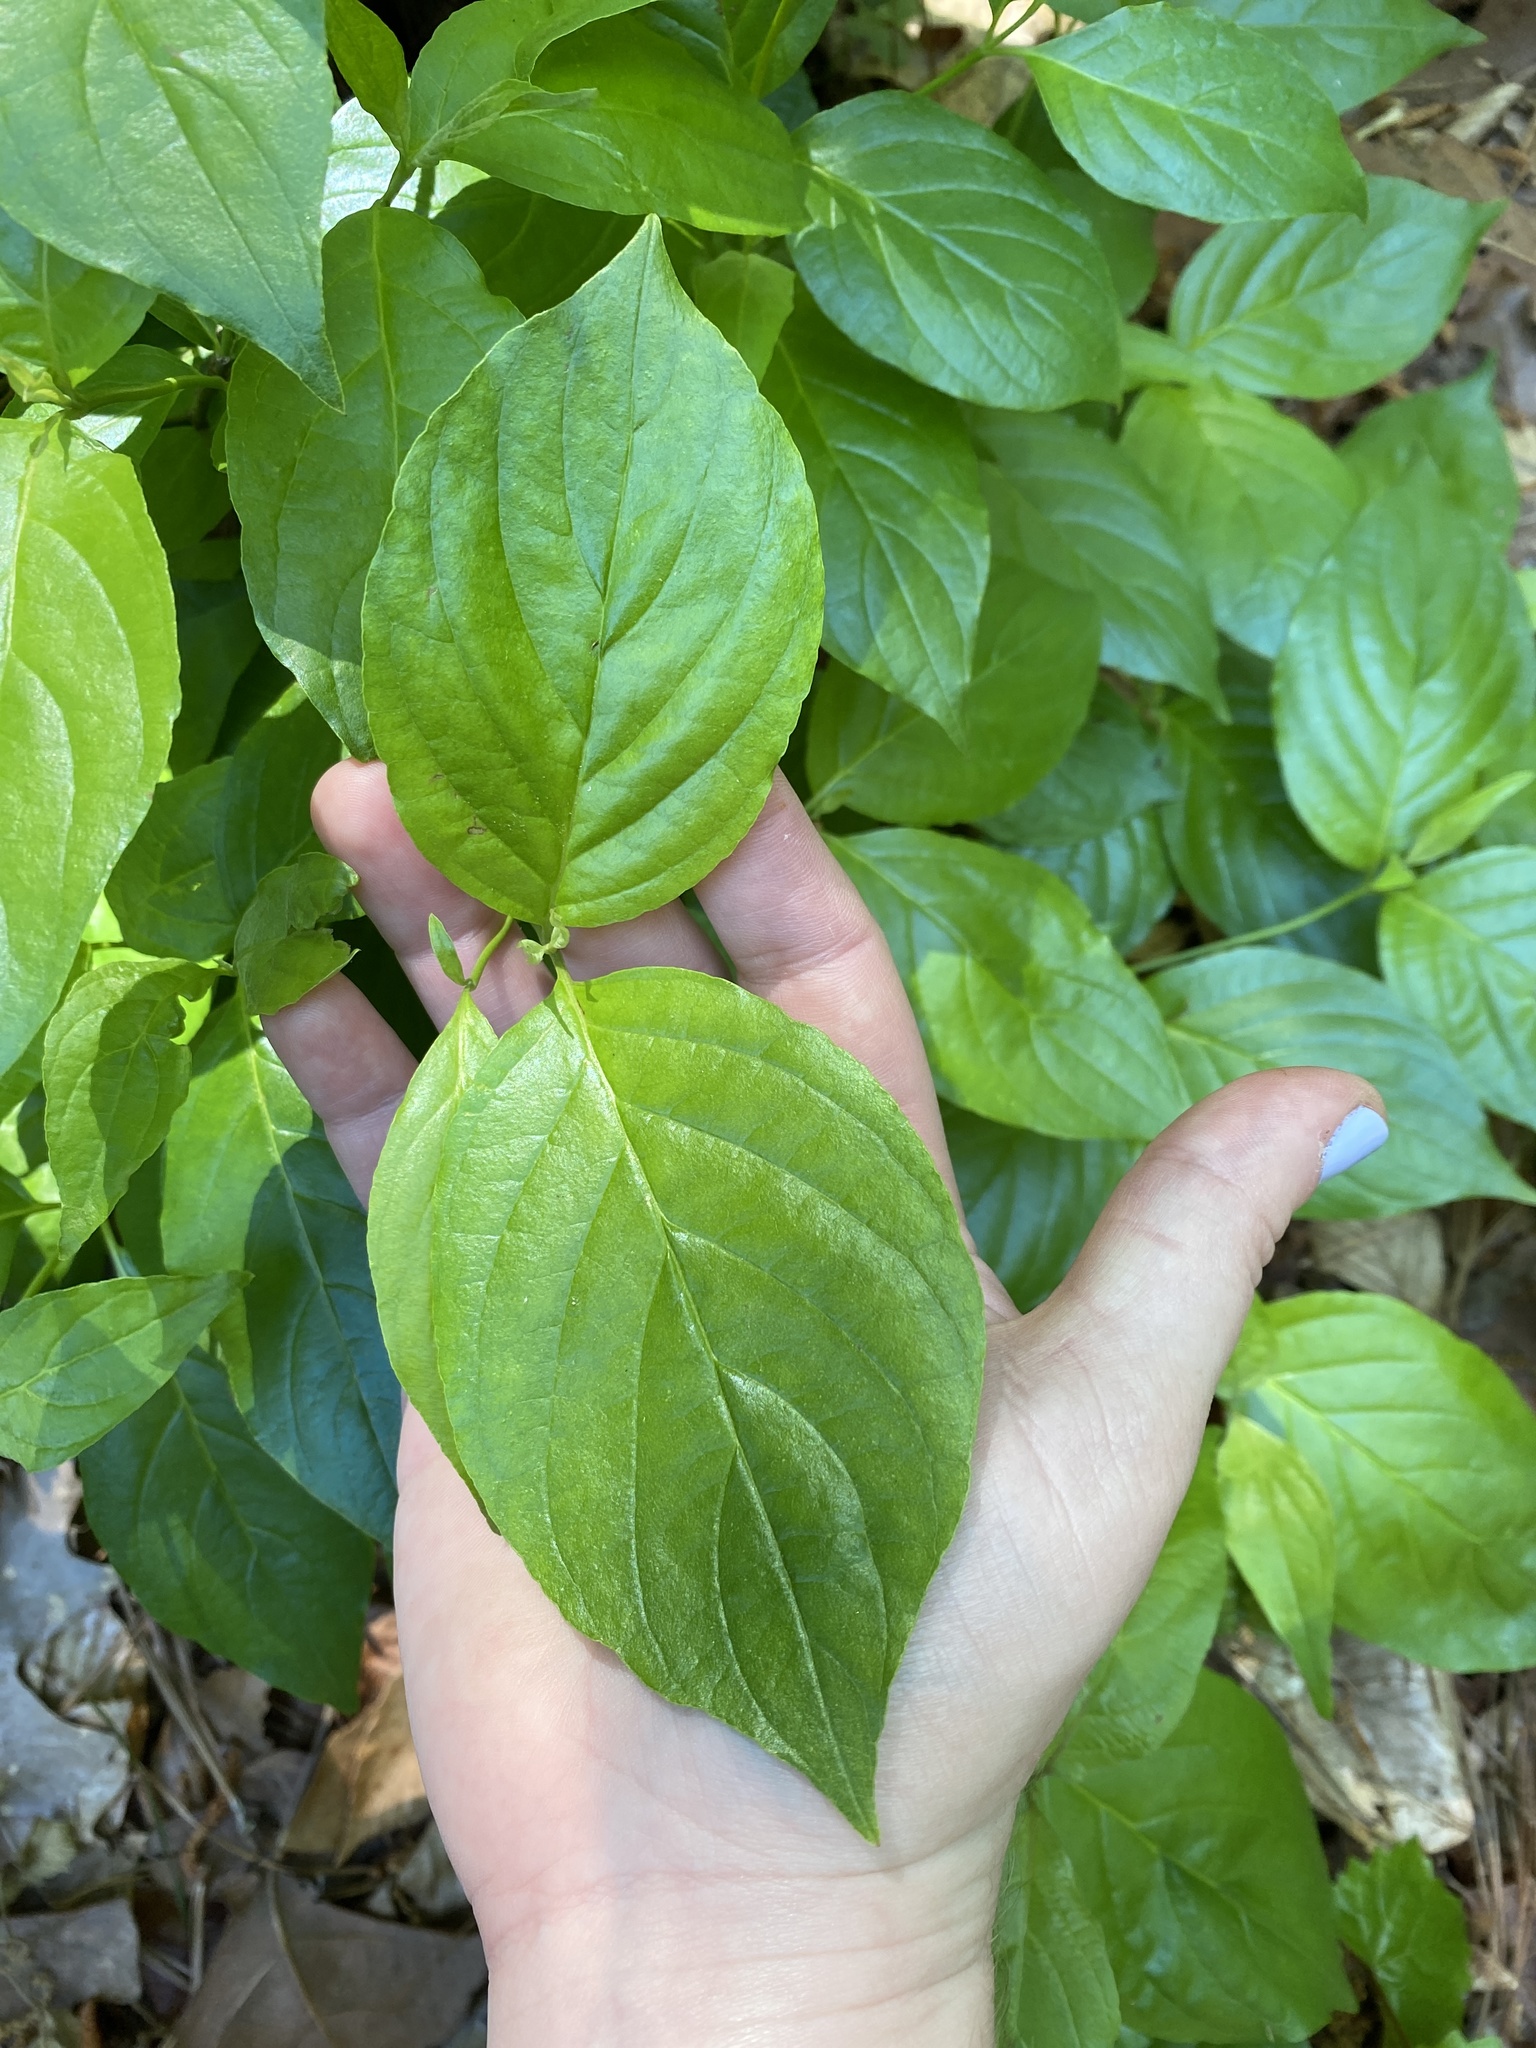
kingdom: Plantae
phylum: Tracheophyta
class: Magnoliopsida
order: Cornales
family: Cornaceae
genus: Cornus
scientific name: Cornus florida
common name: Flowering dogwood
